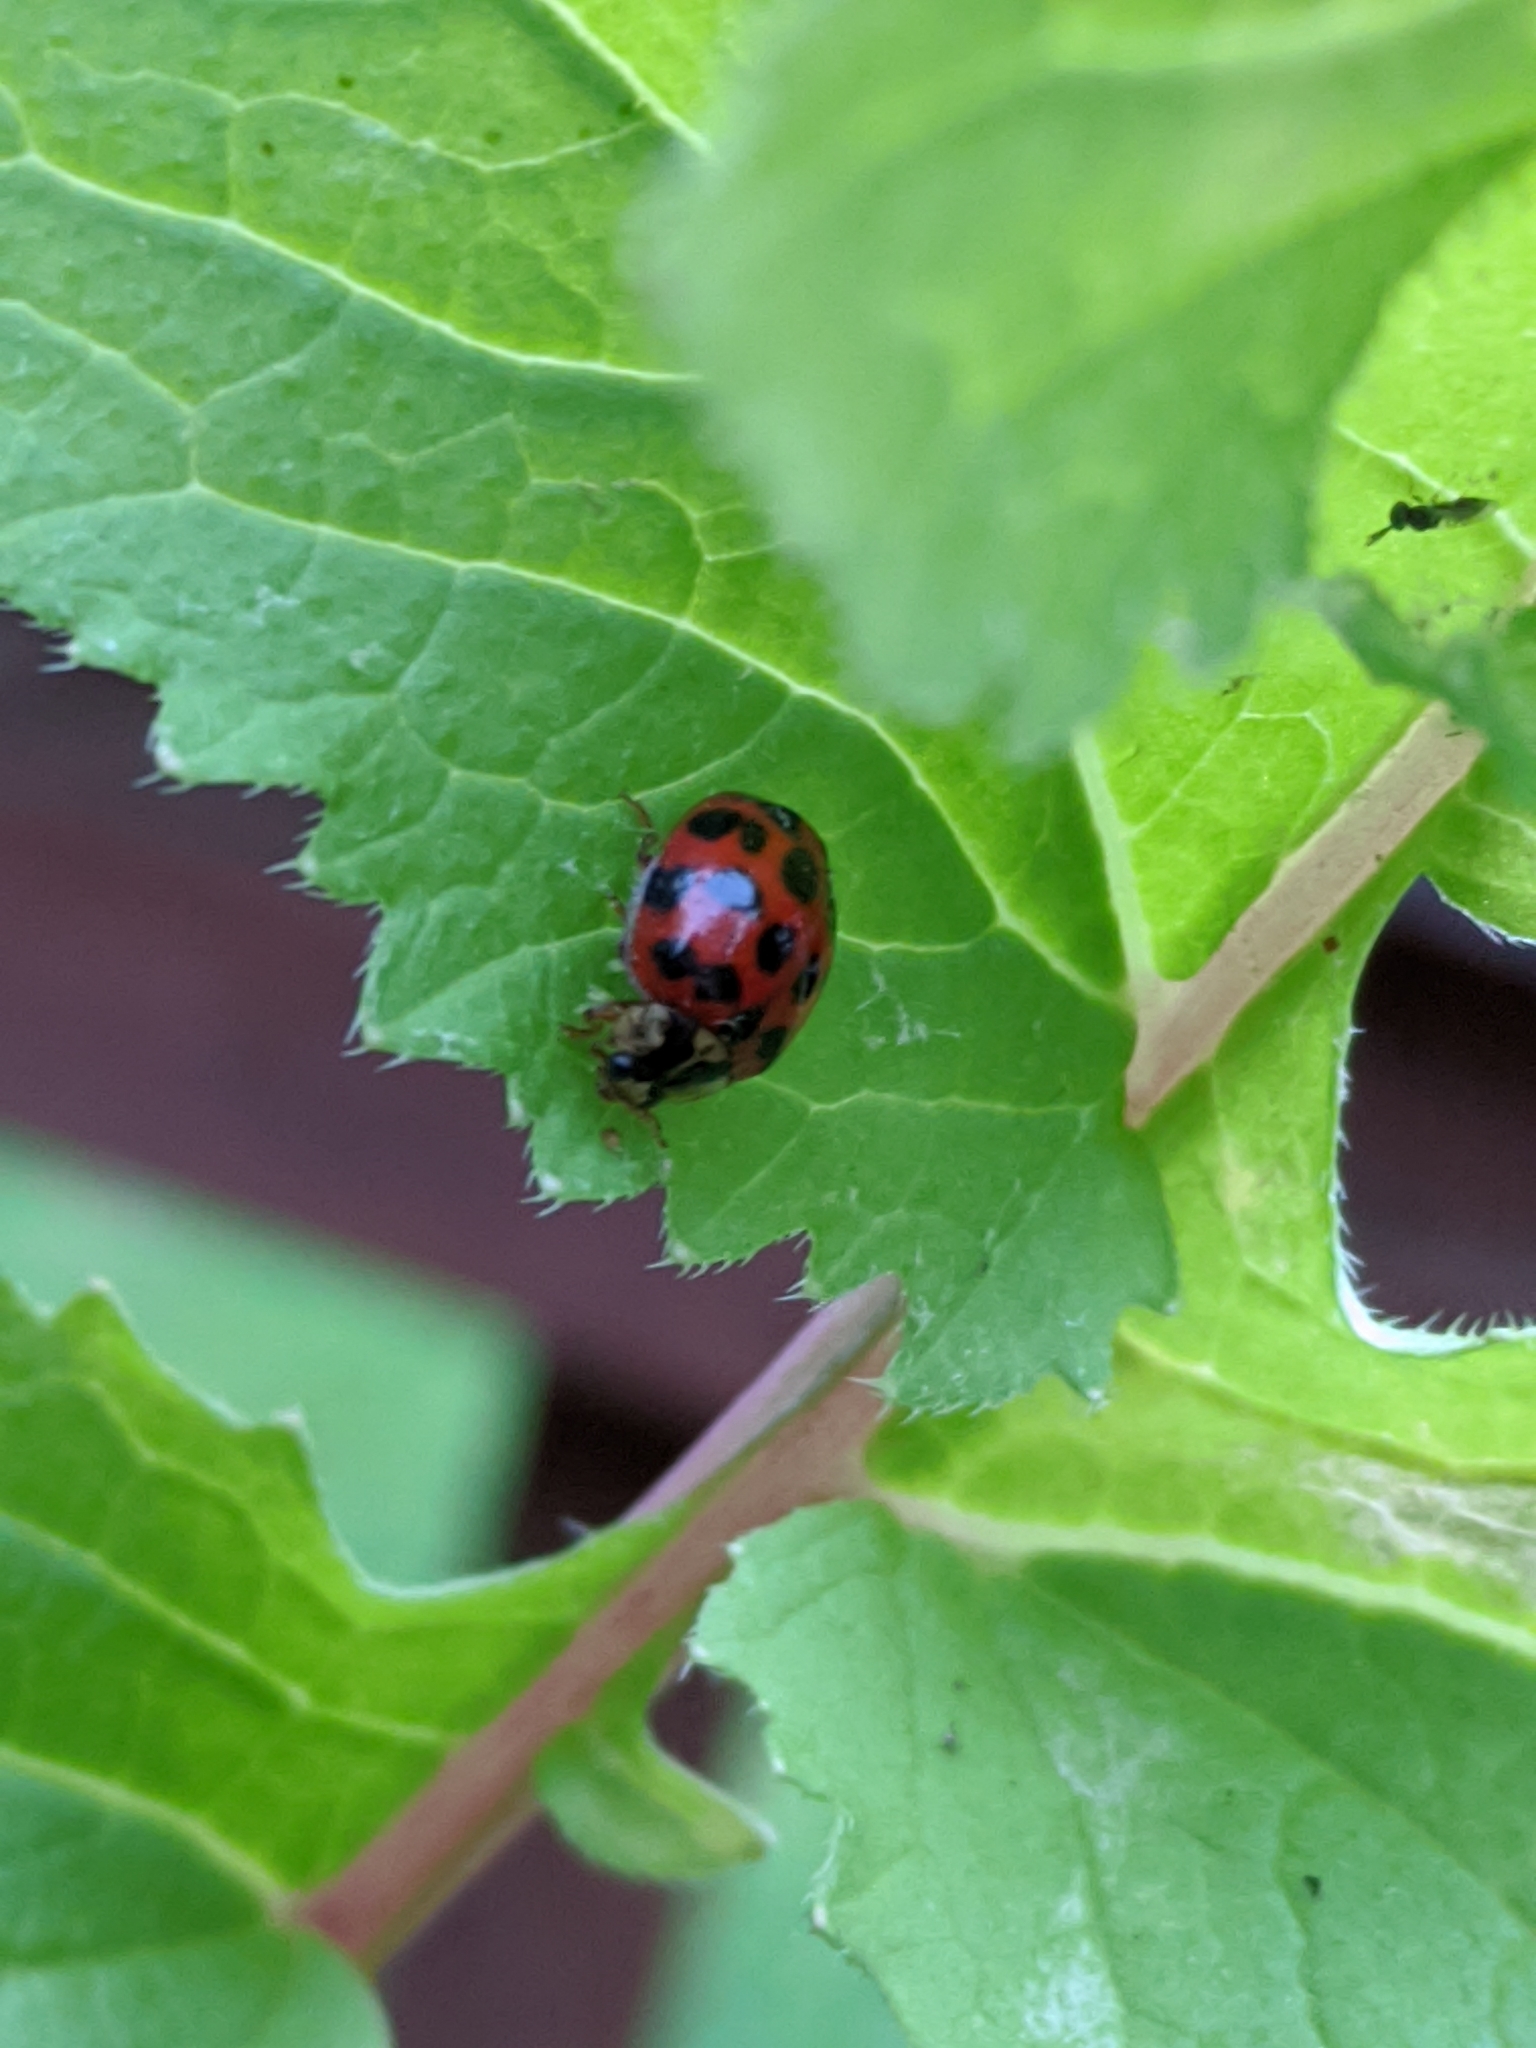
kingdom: Animalia
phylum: Arthropoda
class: Insecta
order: Coleoptera
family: Coccinellidae
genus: Harmonia
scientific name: Harmonia axyridis
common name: Harlequin ladybird
